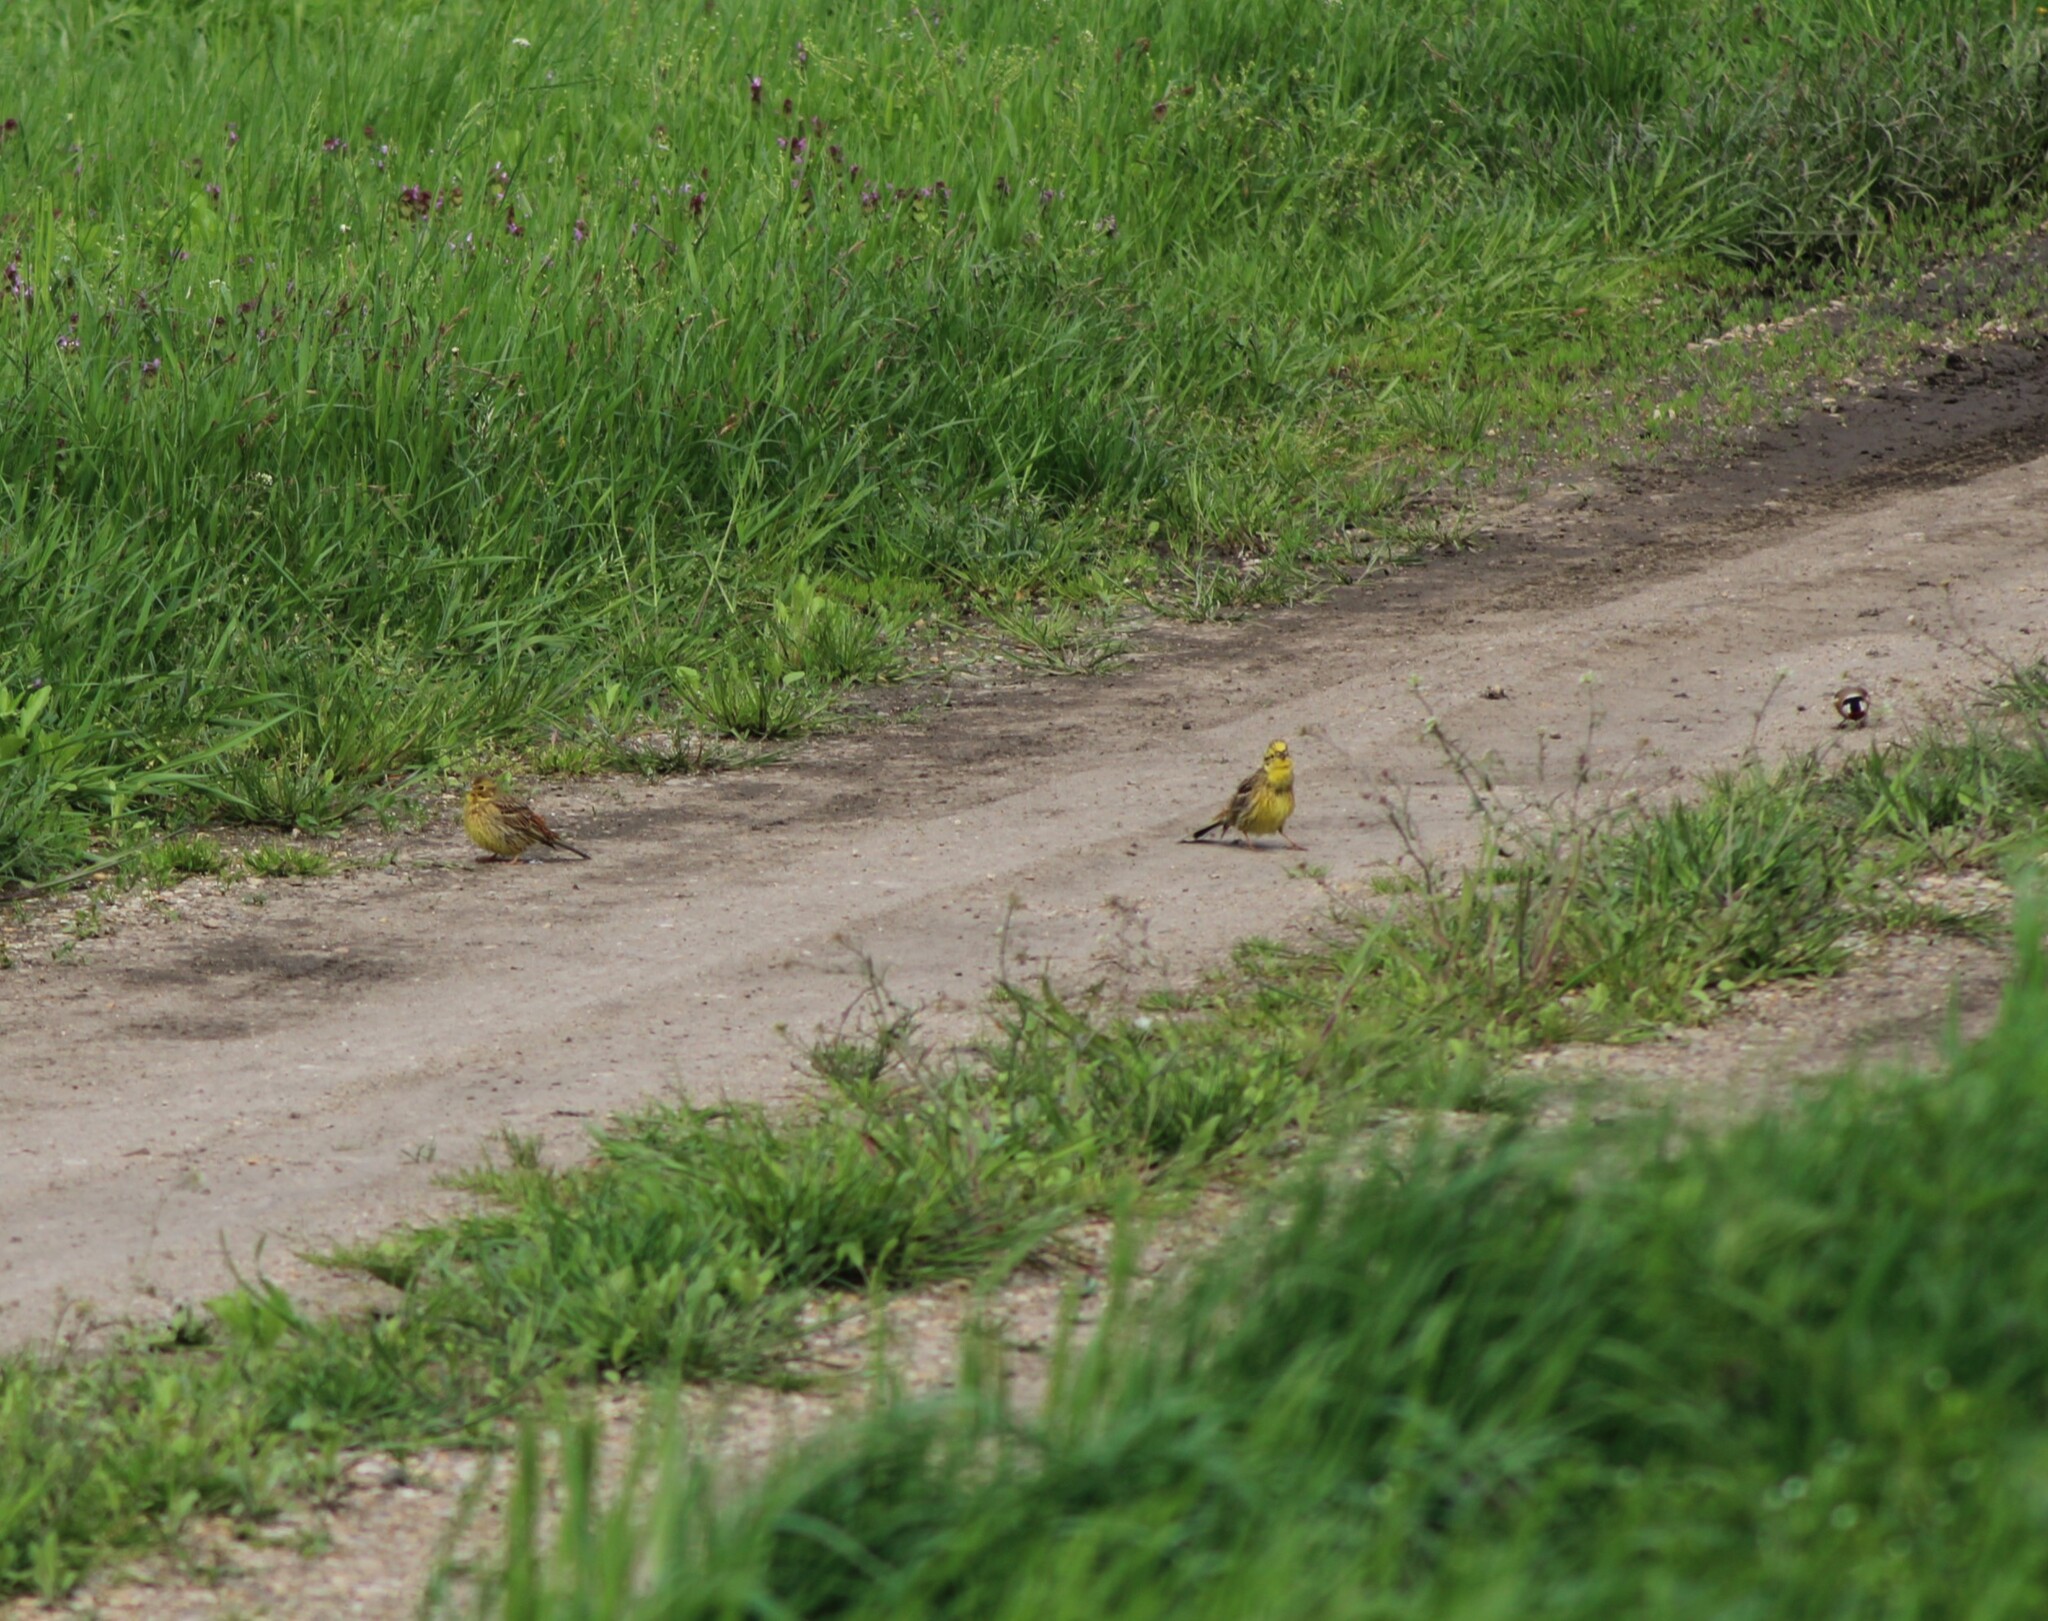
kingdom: Animalia
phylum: Chordata
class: Aves
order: Passeriformes
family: Emberizidae
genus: Emberiza
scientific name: Emberiza citrinella
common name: Yellowhammer
